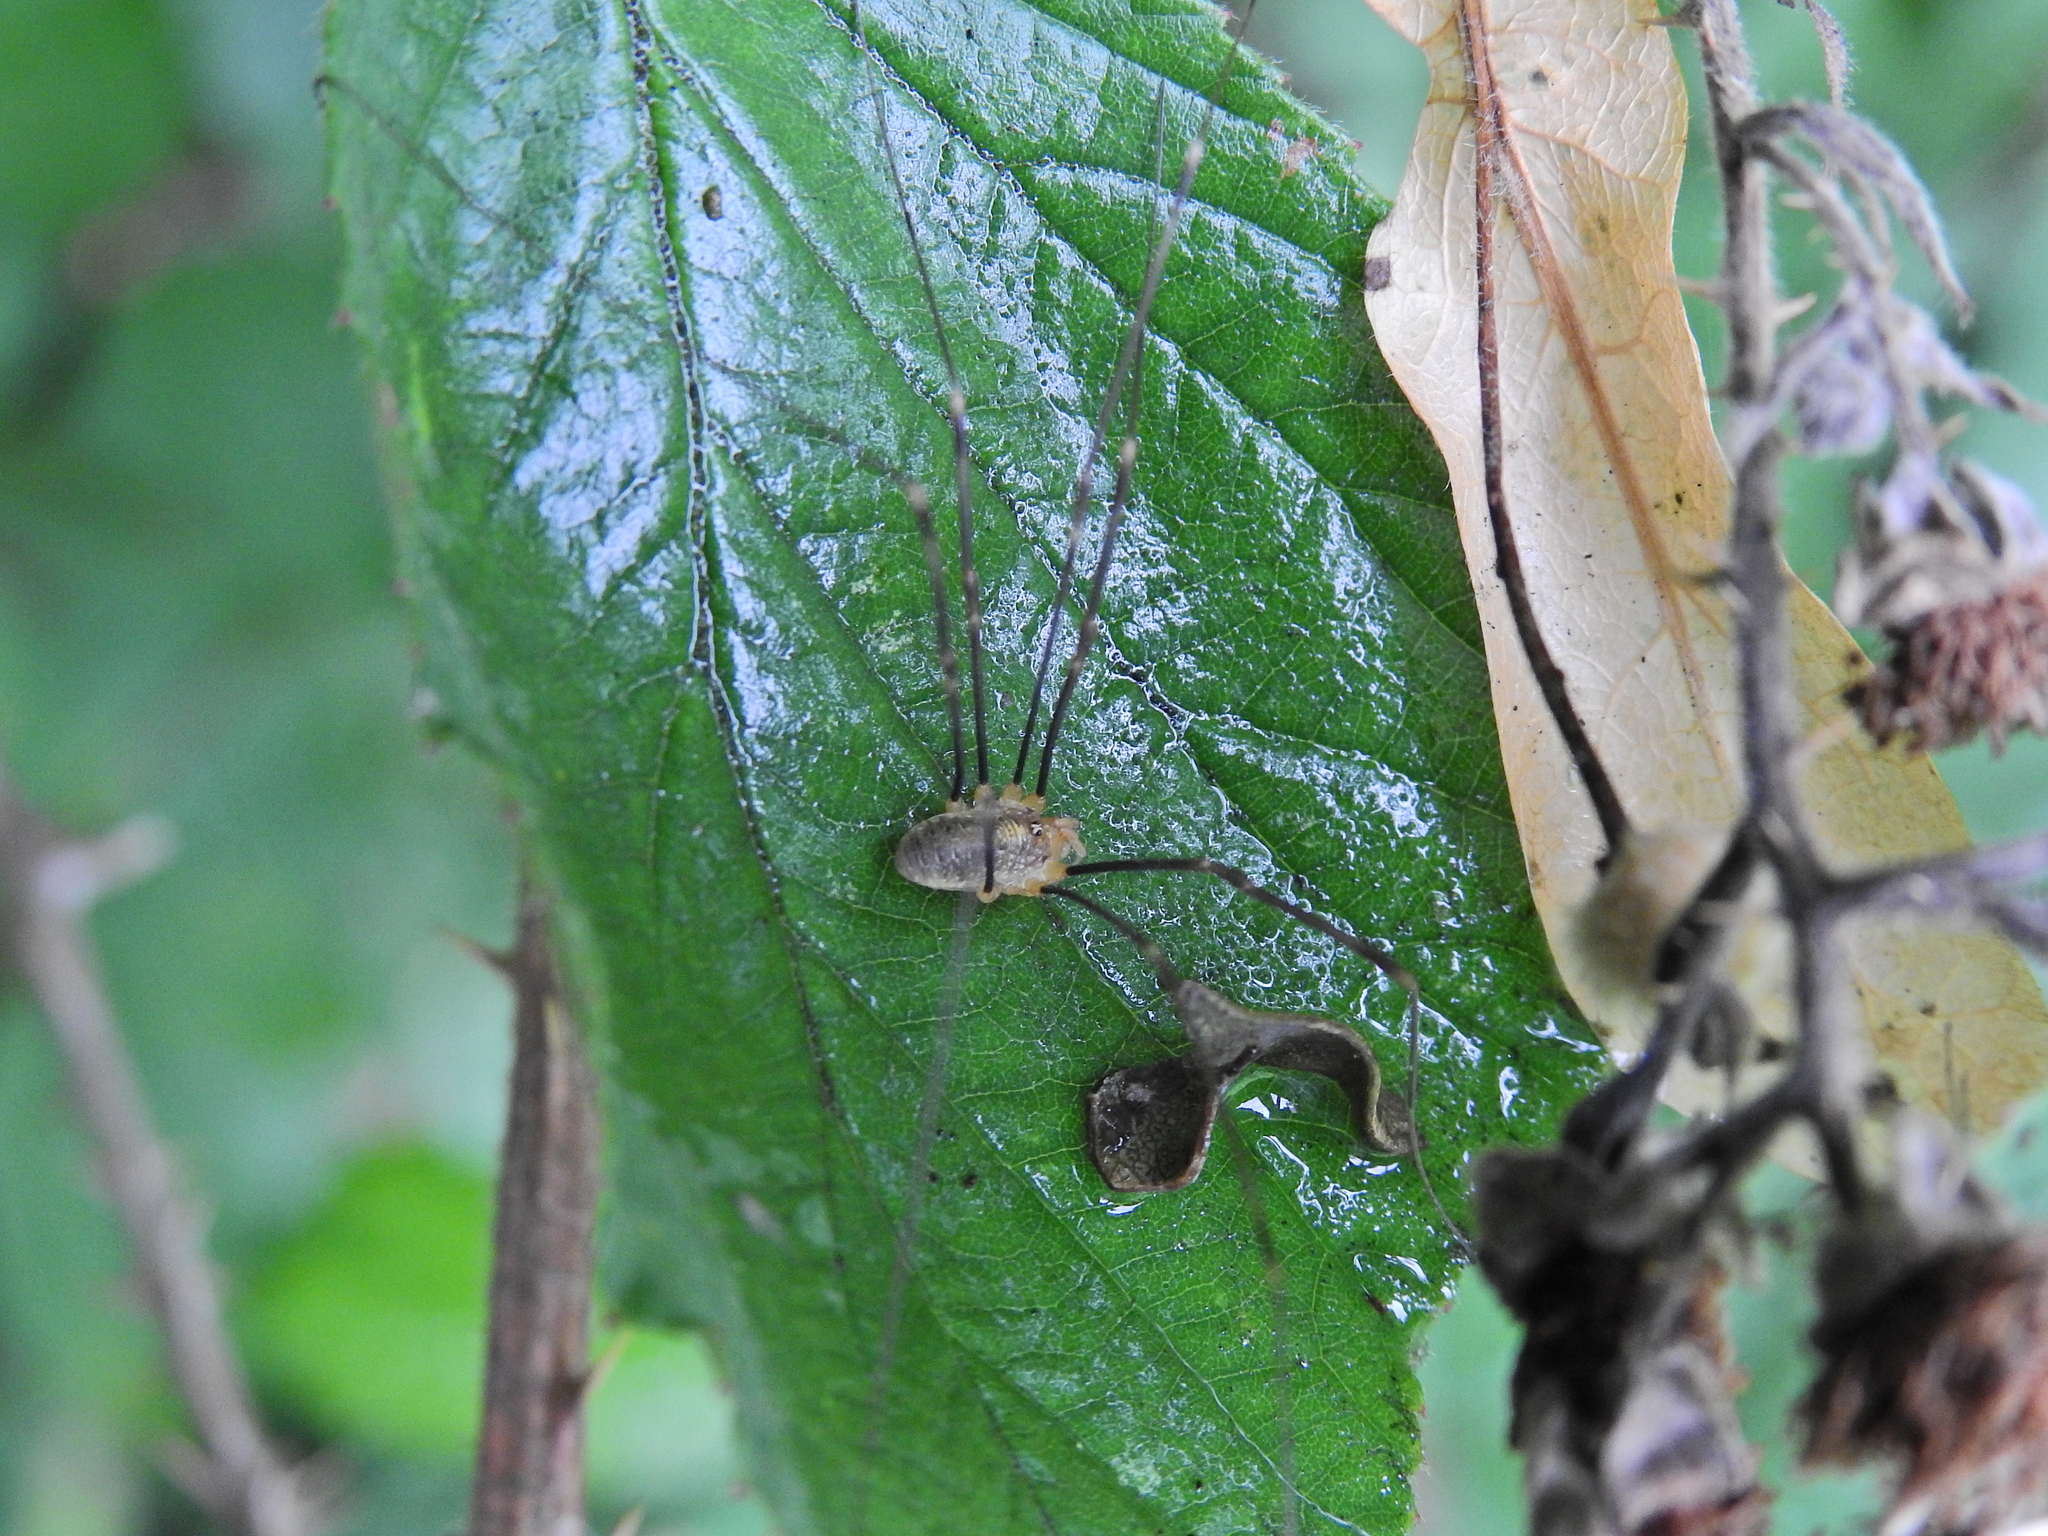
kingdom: Animalia
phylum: Arthropoda
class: Arachnida
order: Opiliones
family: Phalangiidae
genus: Opilio
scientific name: Opilio canestrinii
